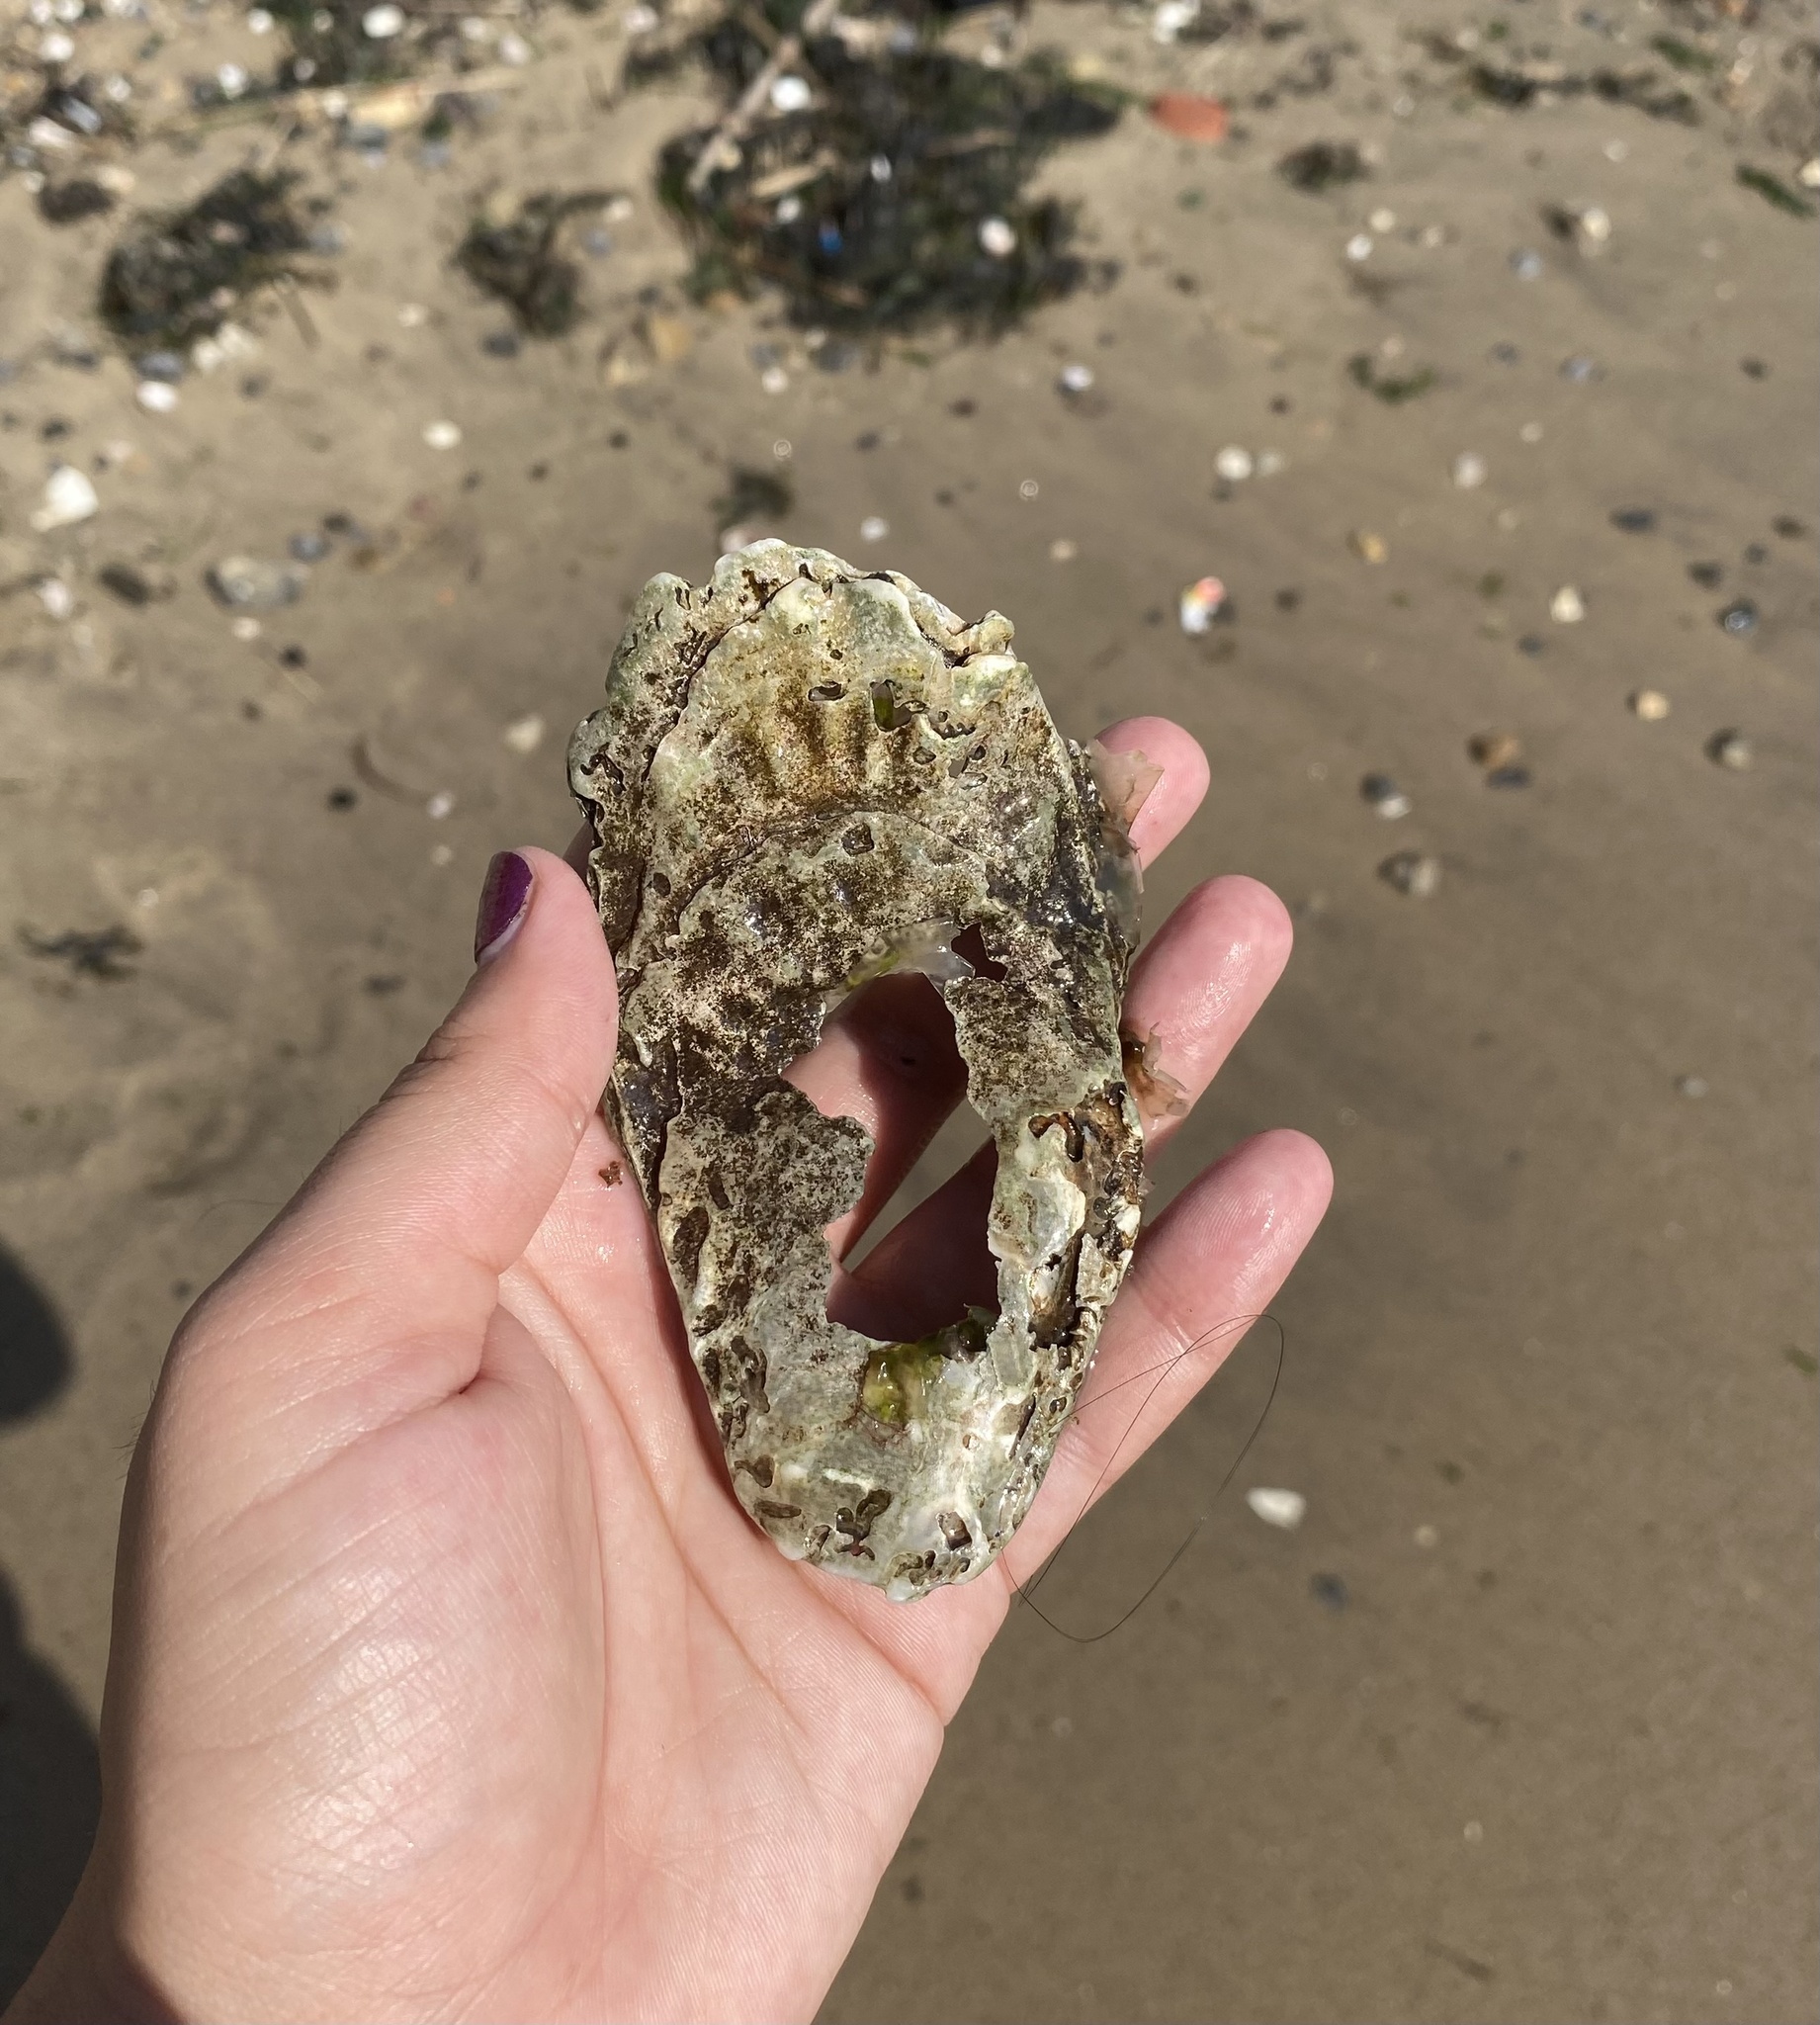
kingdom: Animalia
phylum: Mollusca
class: Bivalvia
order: Ostreida
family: Ostreidae
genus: Crassostrea
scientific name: Crassostrea virginica
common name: American oyster
